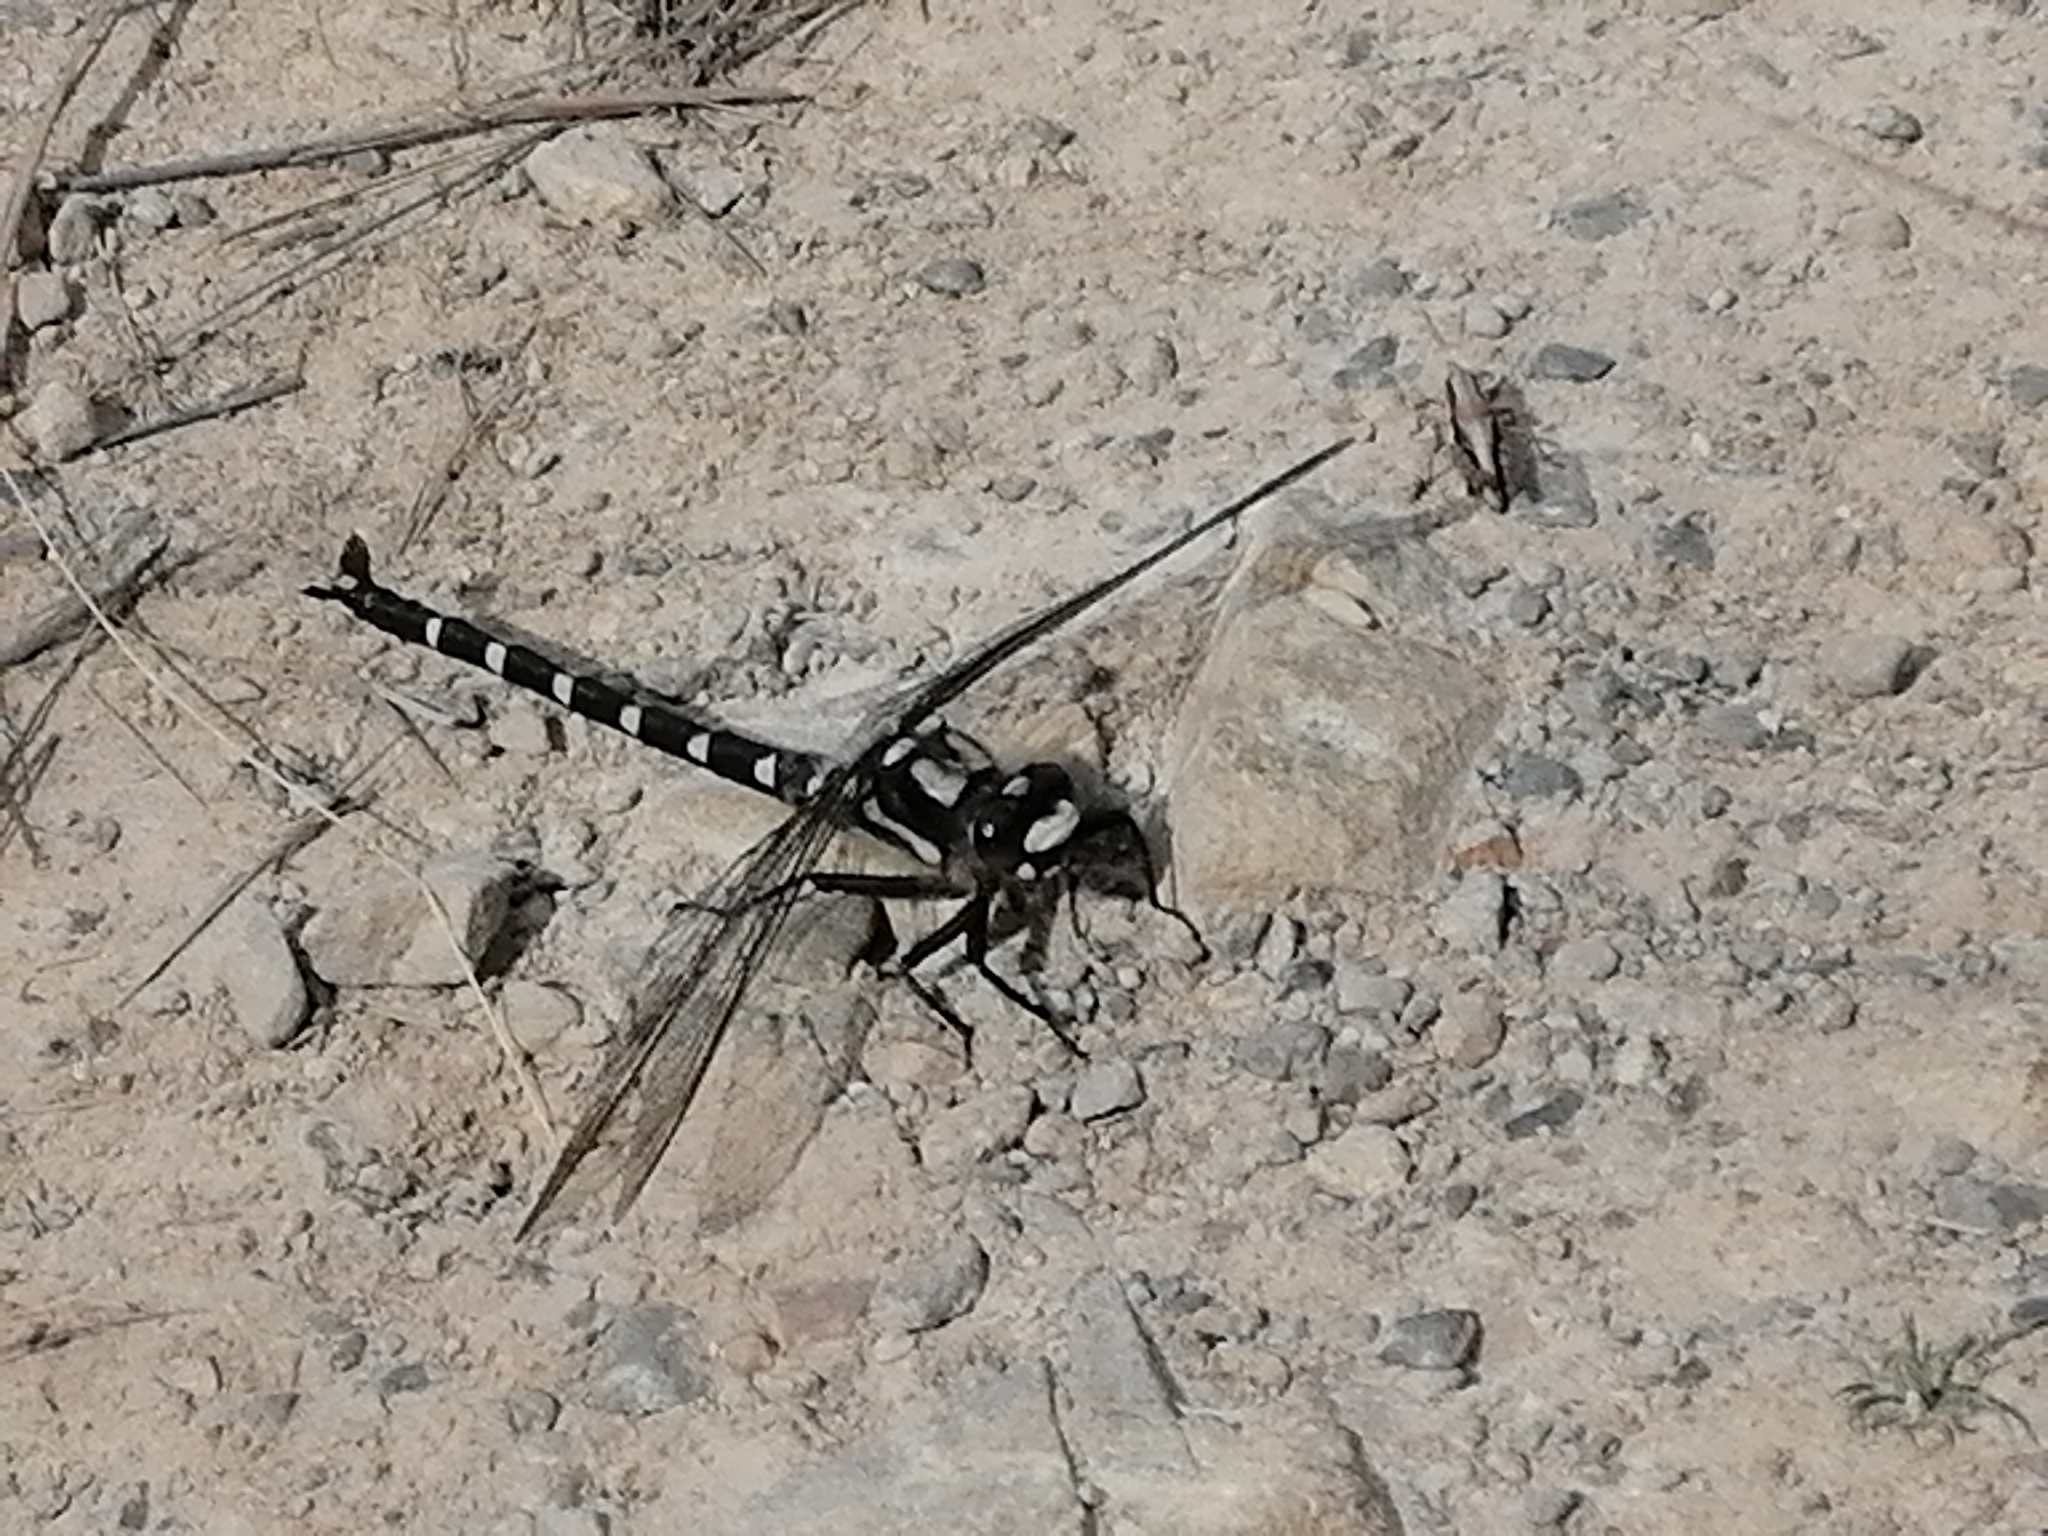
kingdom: Animalia
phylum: Arthropoda
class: Insecta
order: Odonata
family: Petaluridae
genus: Uropetala
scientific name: Uropetala chiltoni
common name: Mountain giant dragonfly
